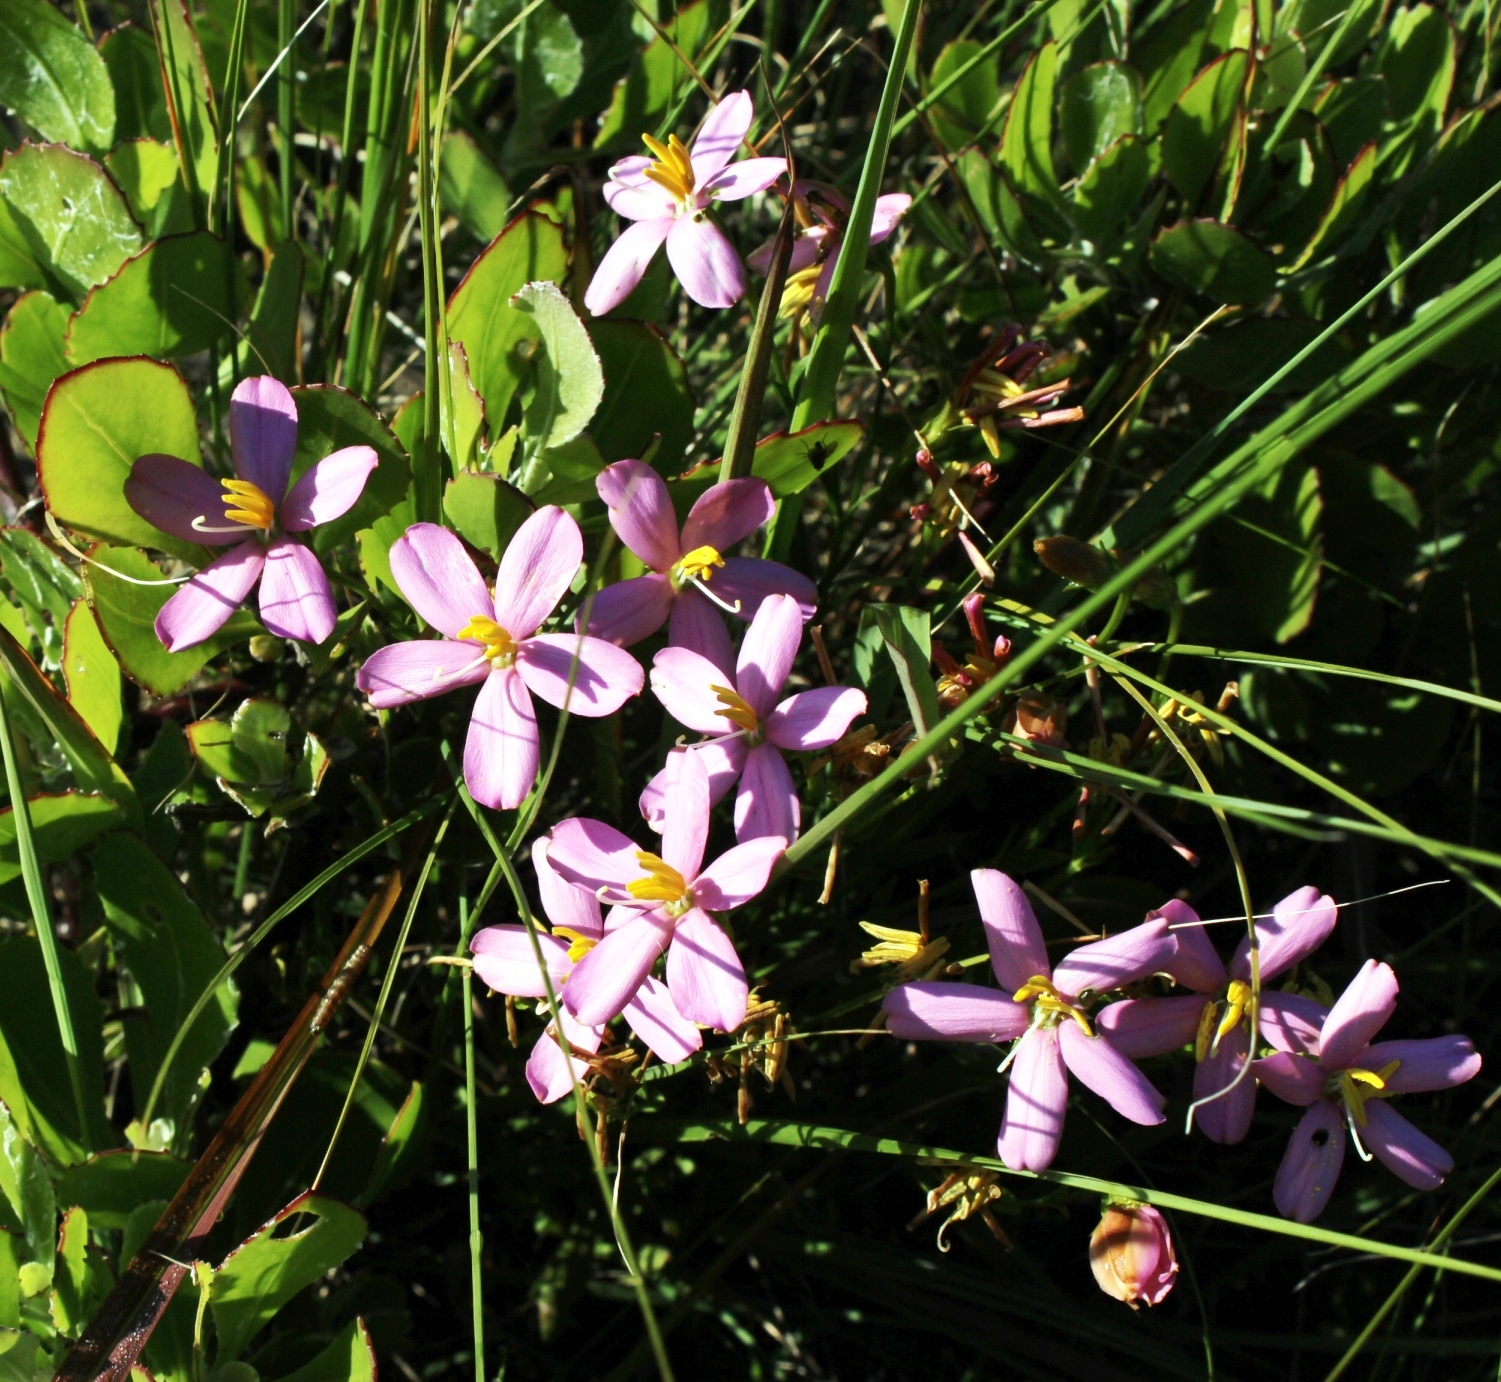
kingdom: Plantae
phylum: Tracheophyta
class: Magnoliopsida
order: Gentianales
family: Gentianaceae
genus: Chironia
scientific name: Chironia baccifera
